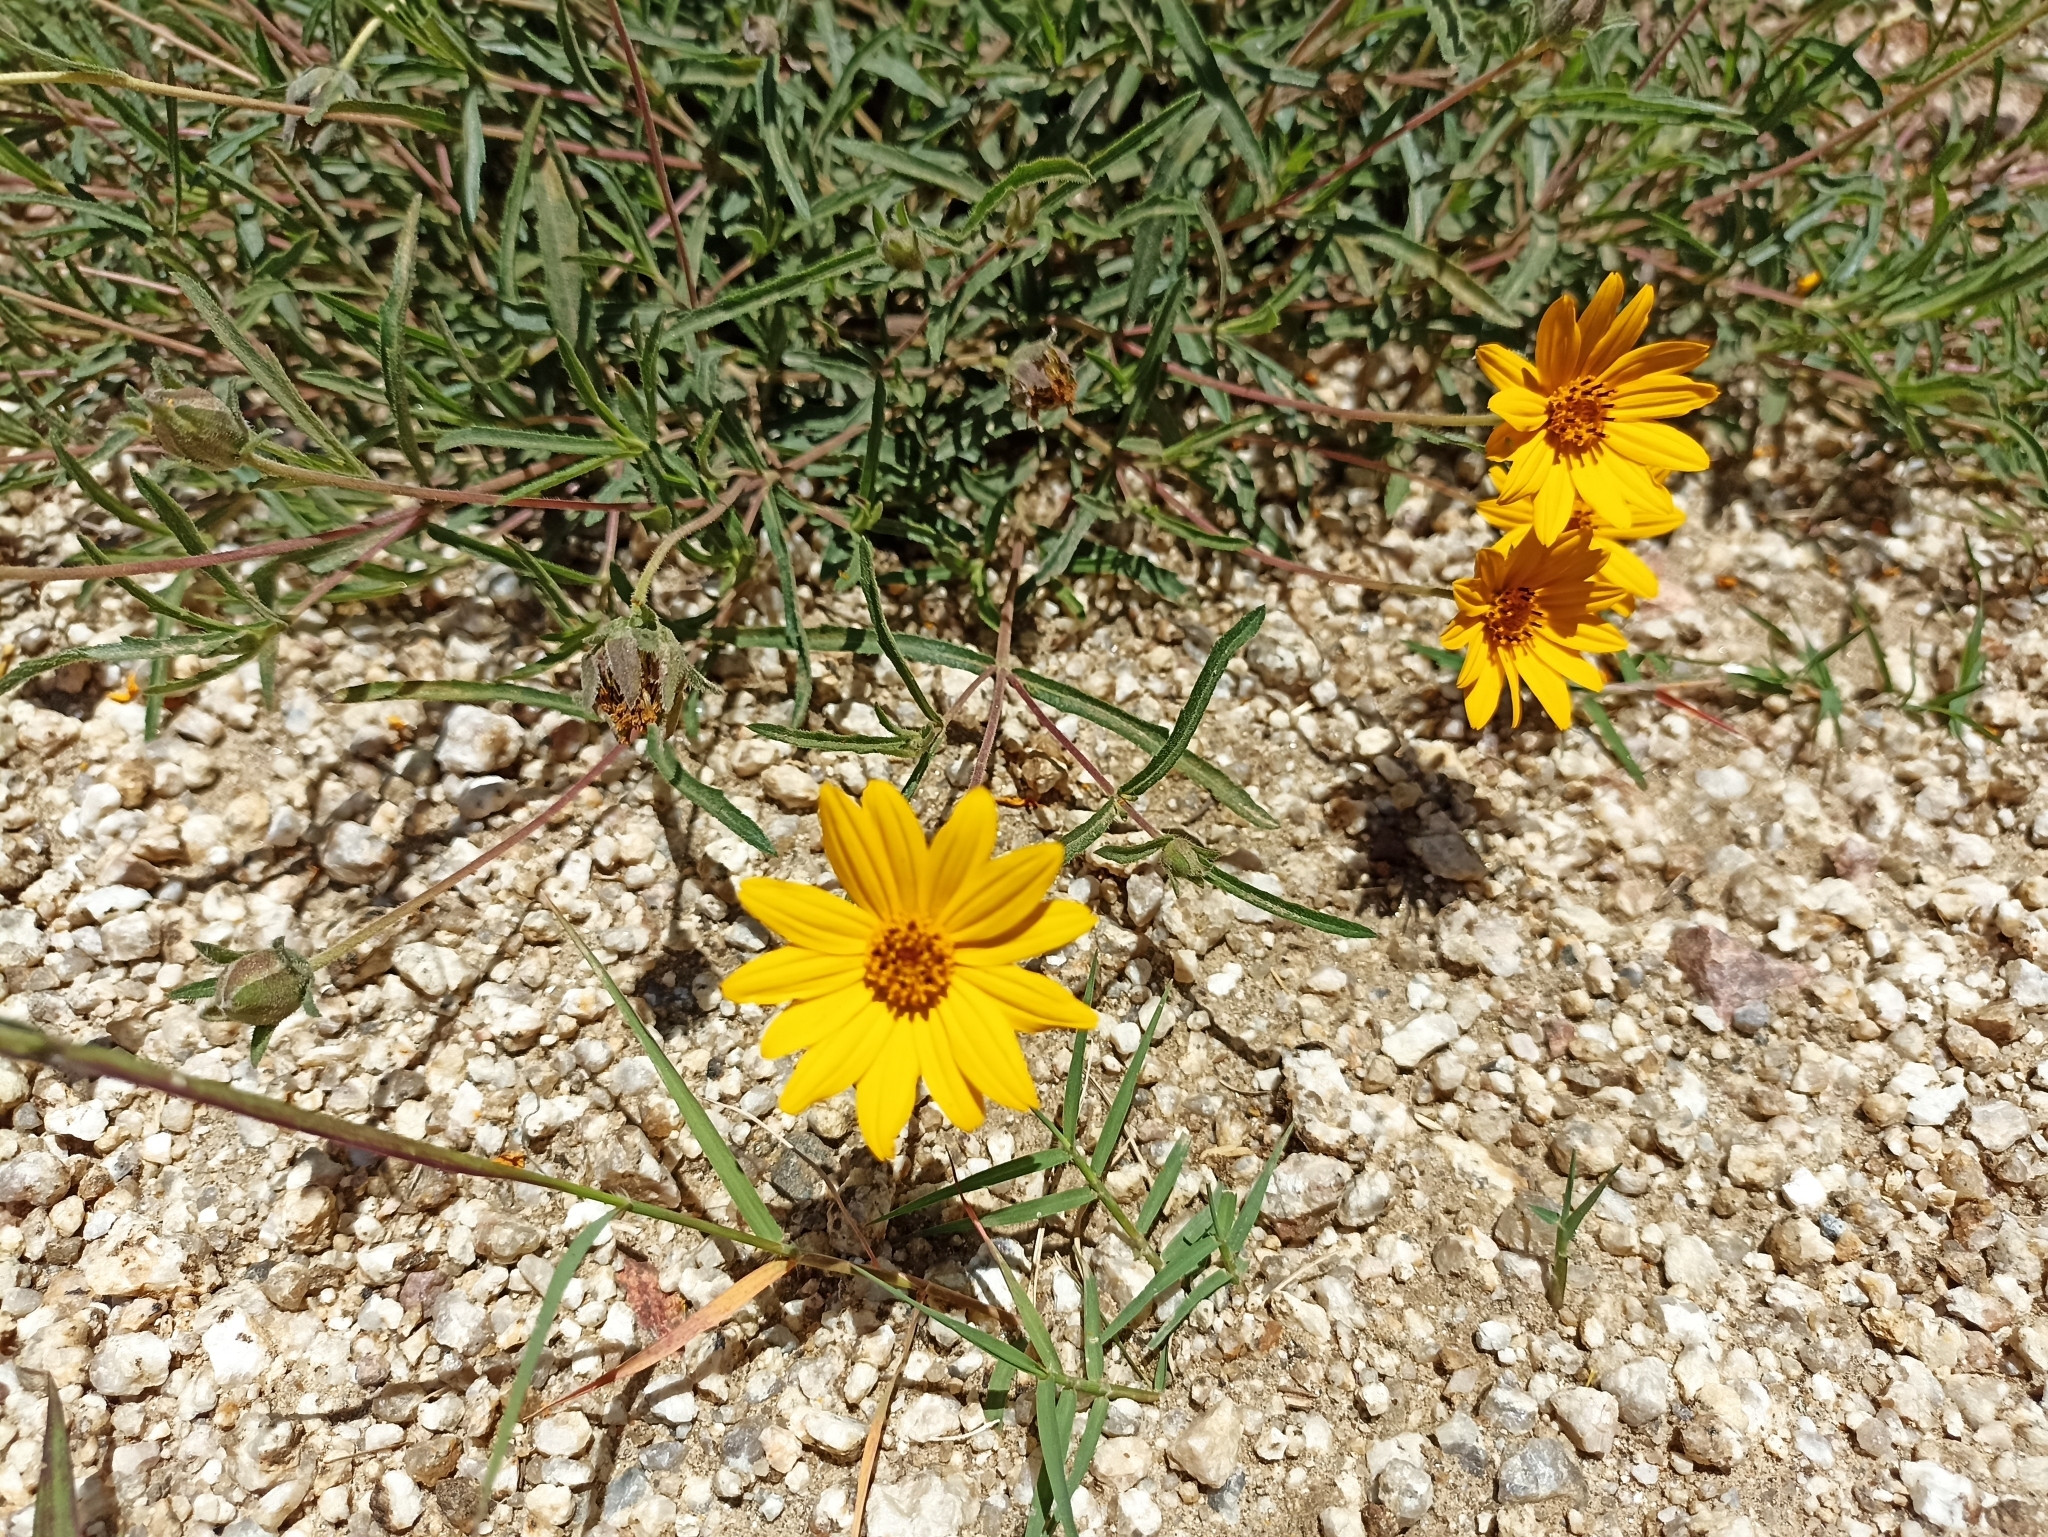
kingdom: Plantae
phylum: Tracheophyta
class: Magnoliopsida
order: Asterales
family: Asteraceae
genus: Wedelia
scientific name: Wedelia montevidensis
